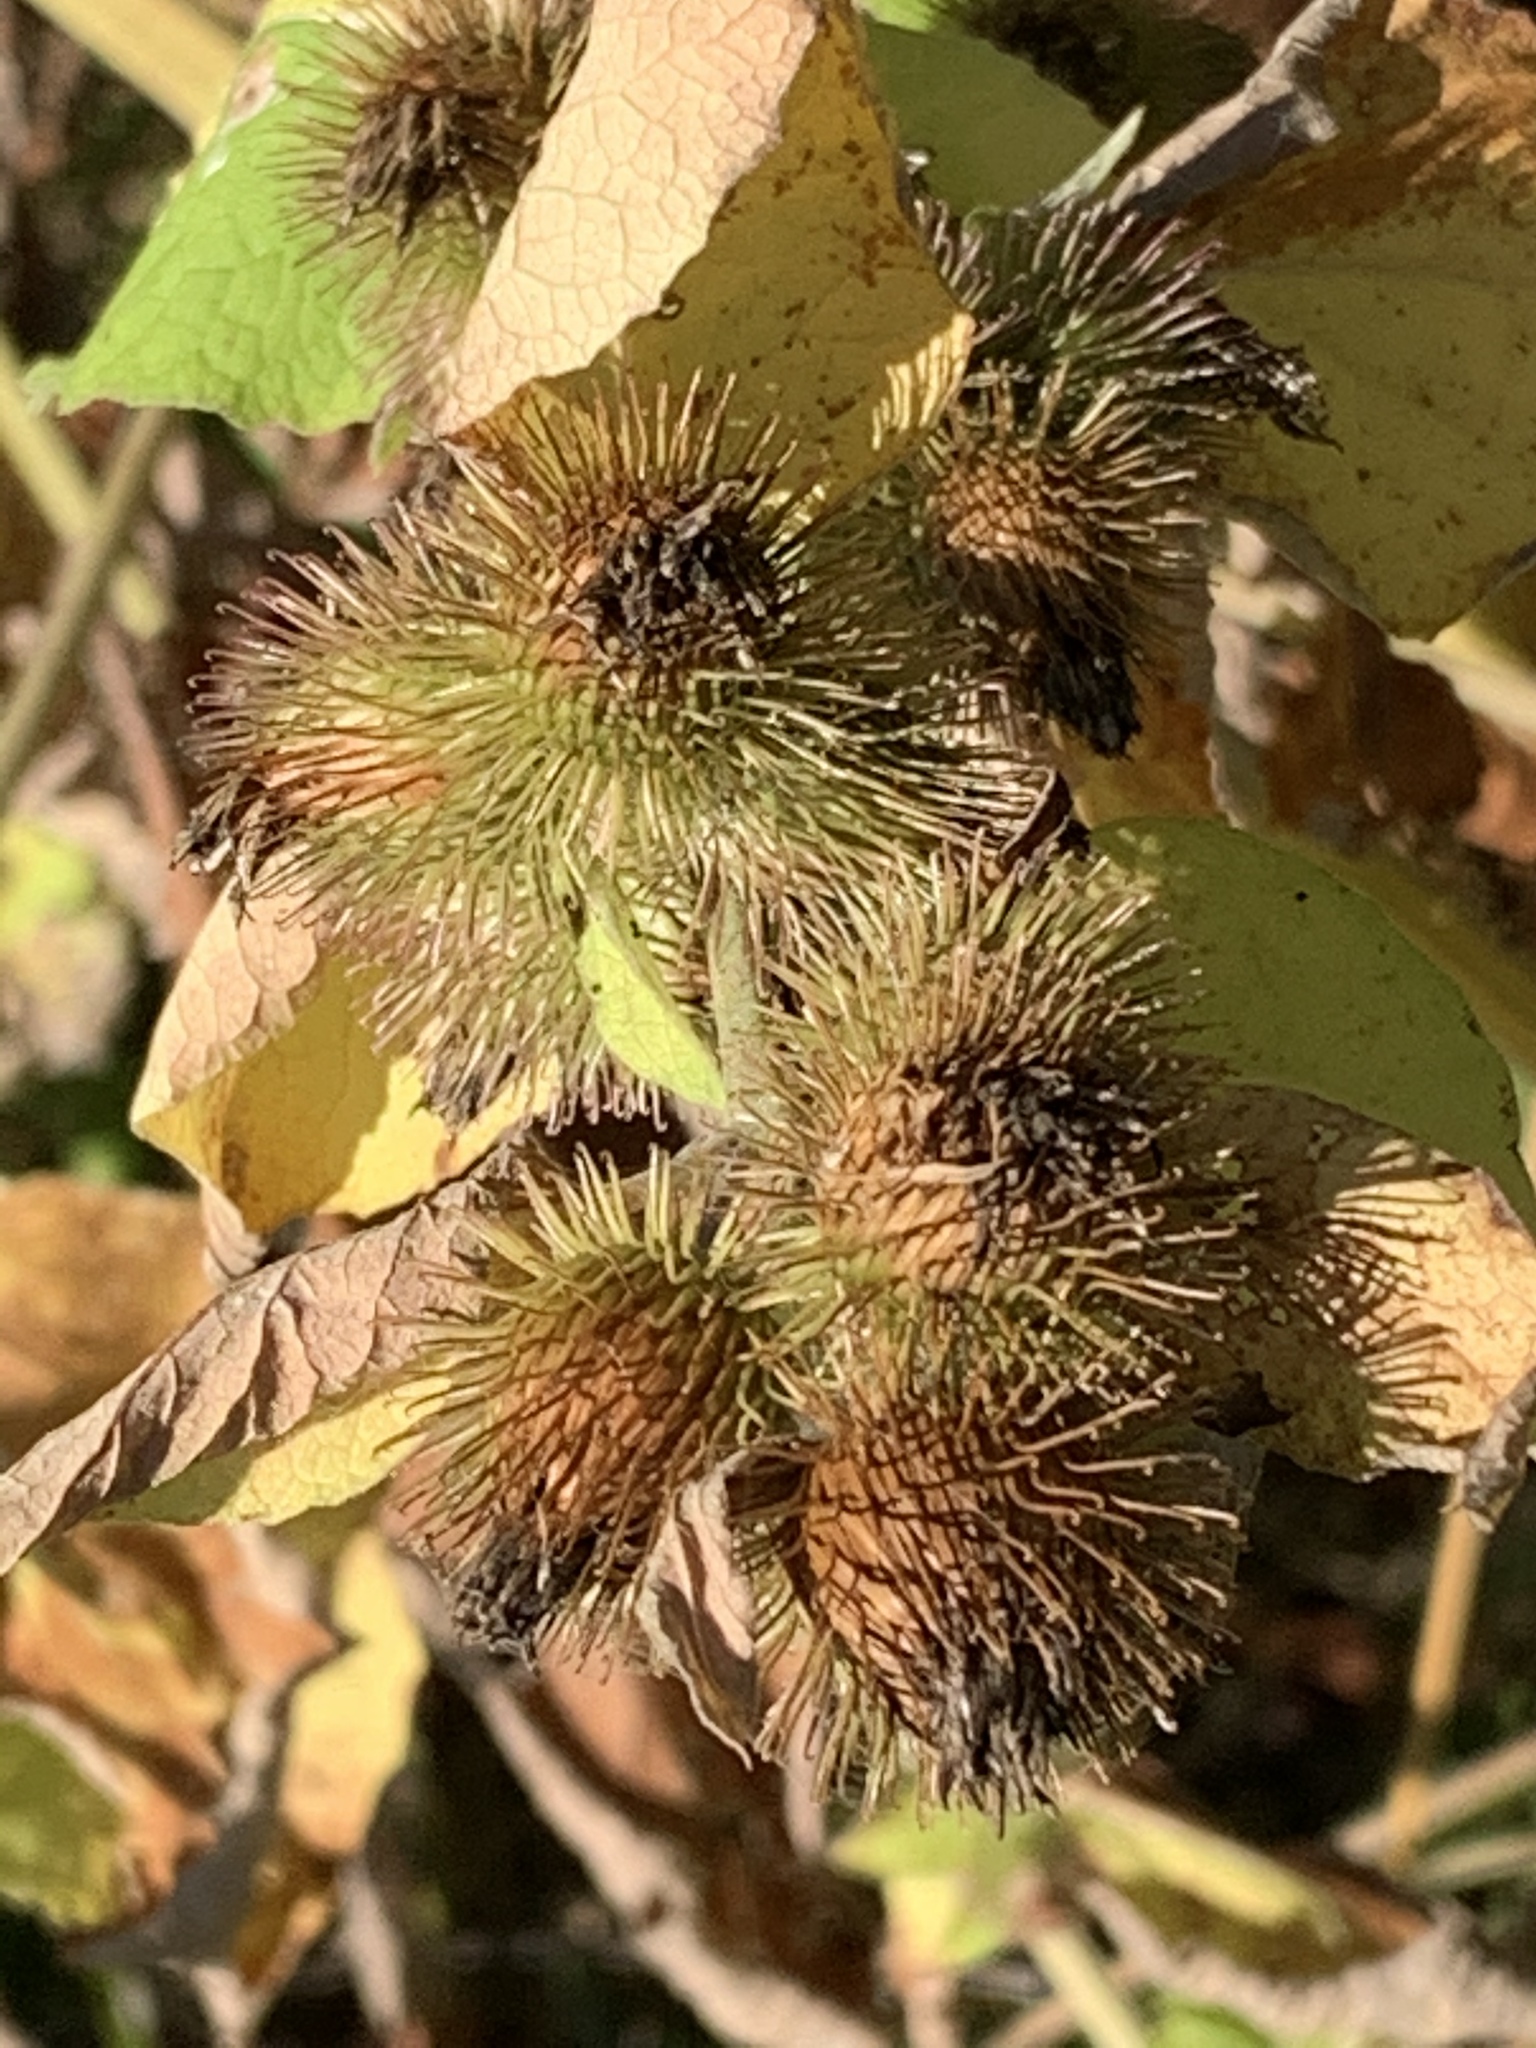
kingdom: Plantae
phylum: Tracheophyta
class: Magnoliopsida
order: Asterales
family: Asteraceae
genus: Arctium
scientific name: Arctium minus
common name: Lesser burdock
